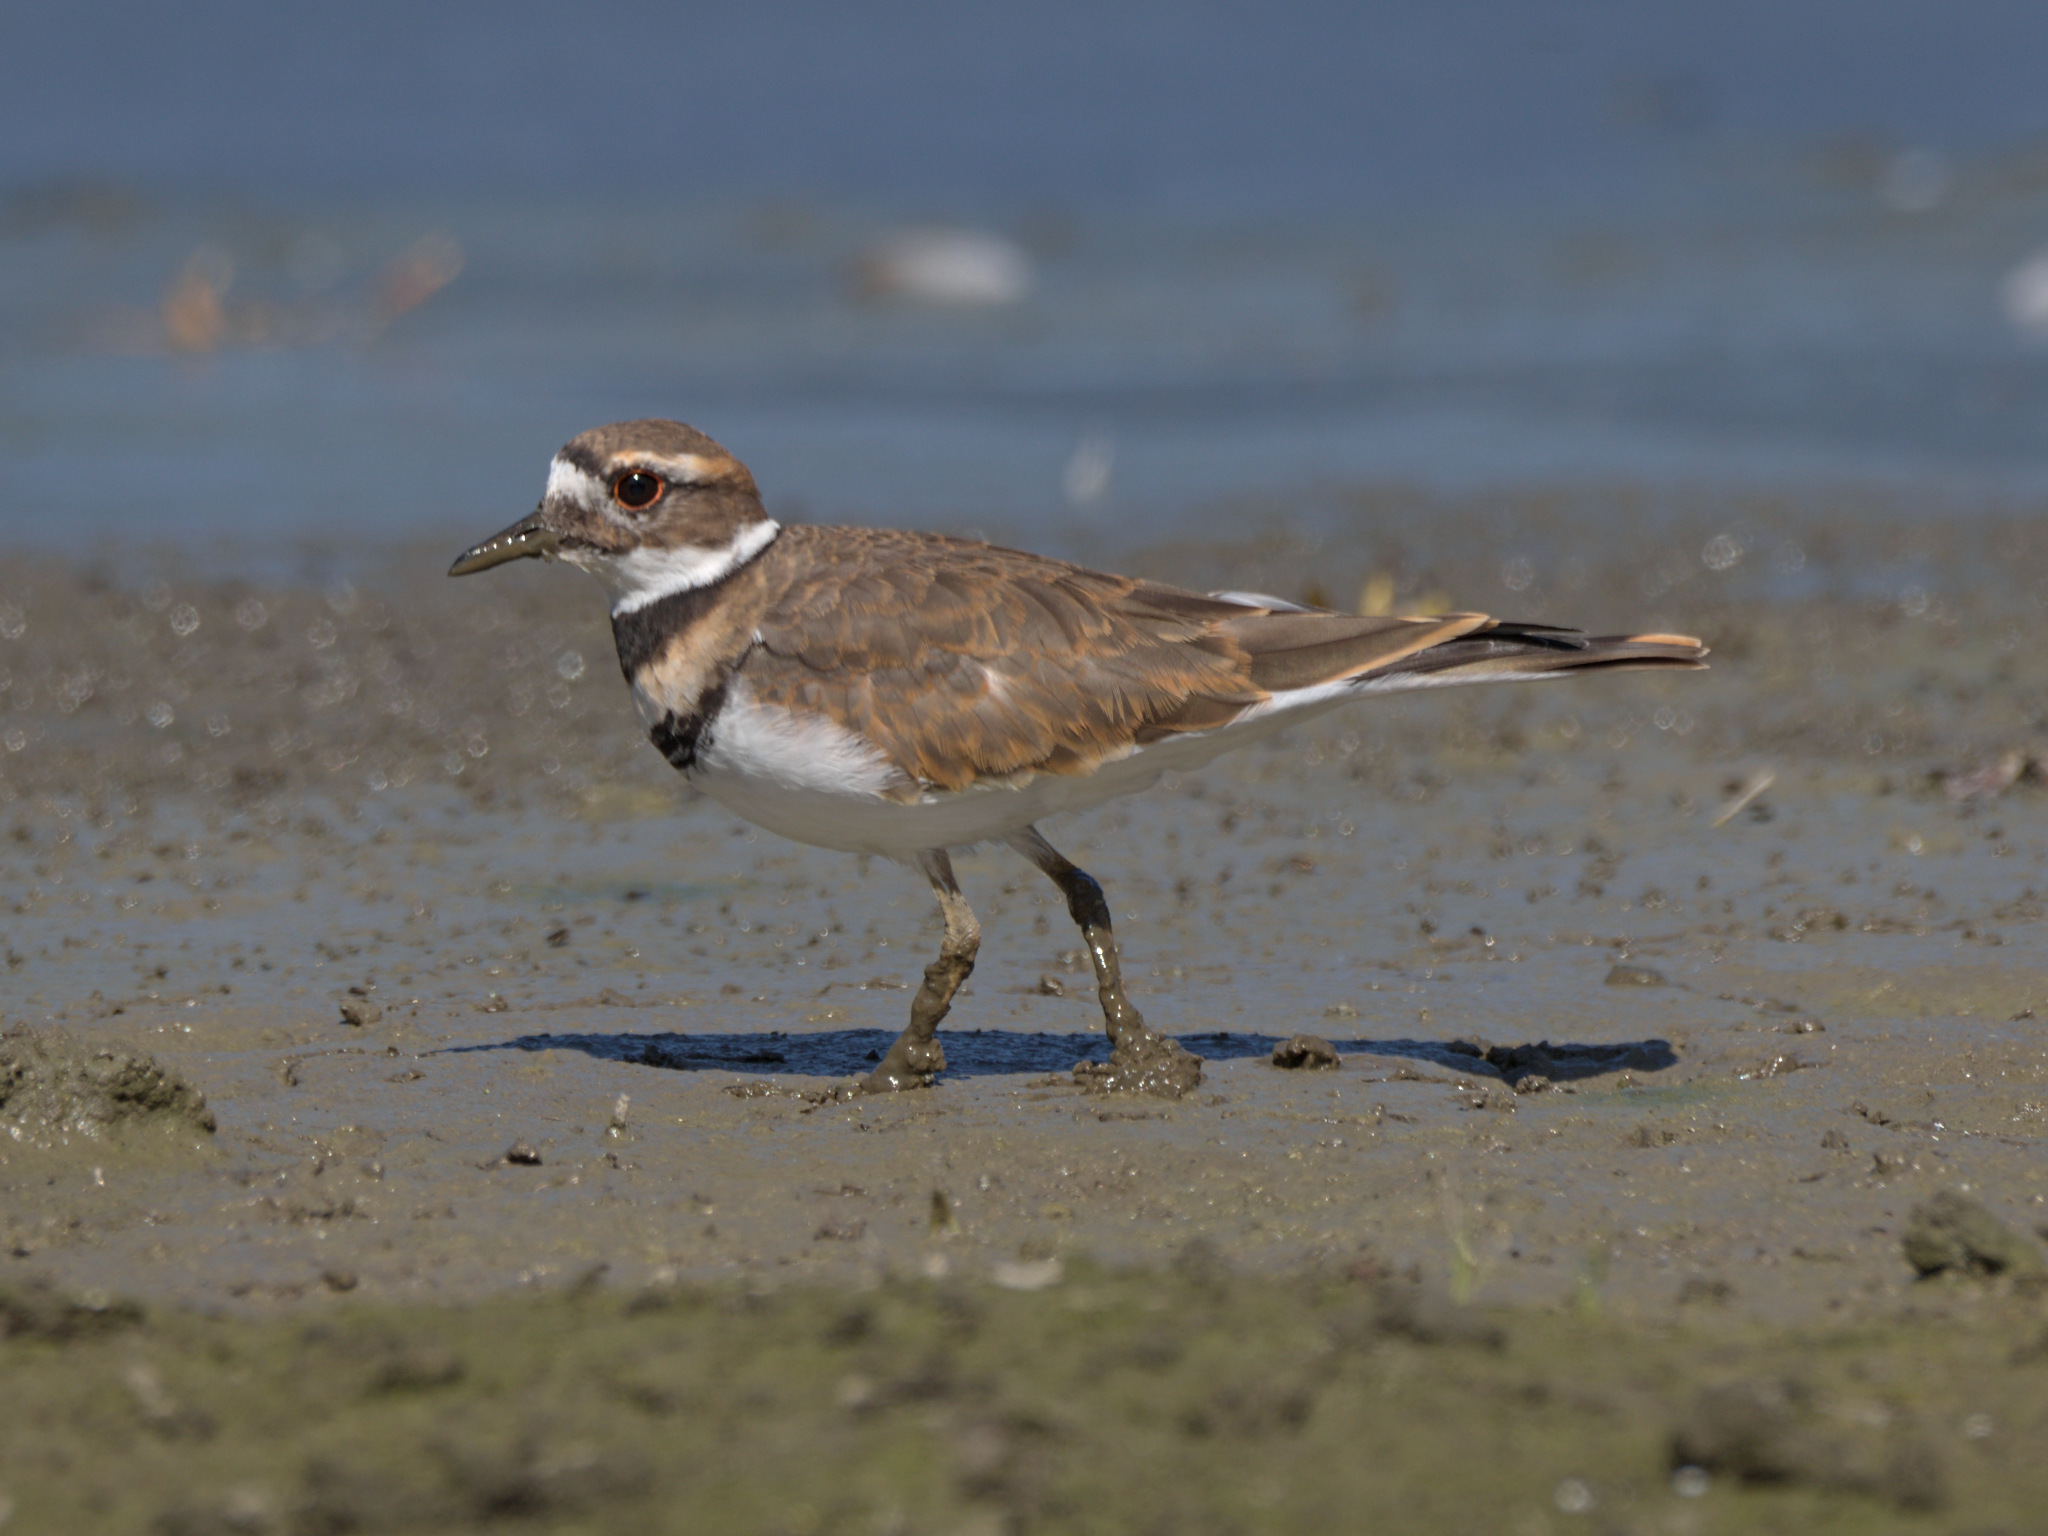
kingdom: Animalia
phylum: Chordata
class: Aves
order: Charadriiformes
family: Charadriidae
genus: Charadrius
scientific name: Charadrius vociferus
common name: Killdeer
